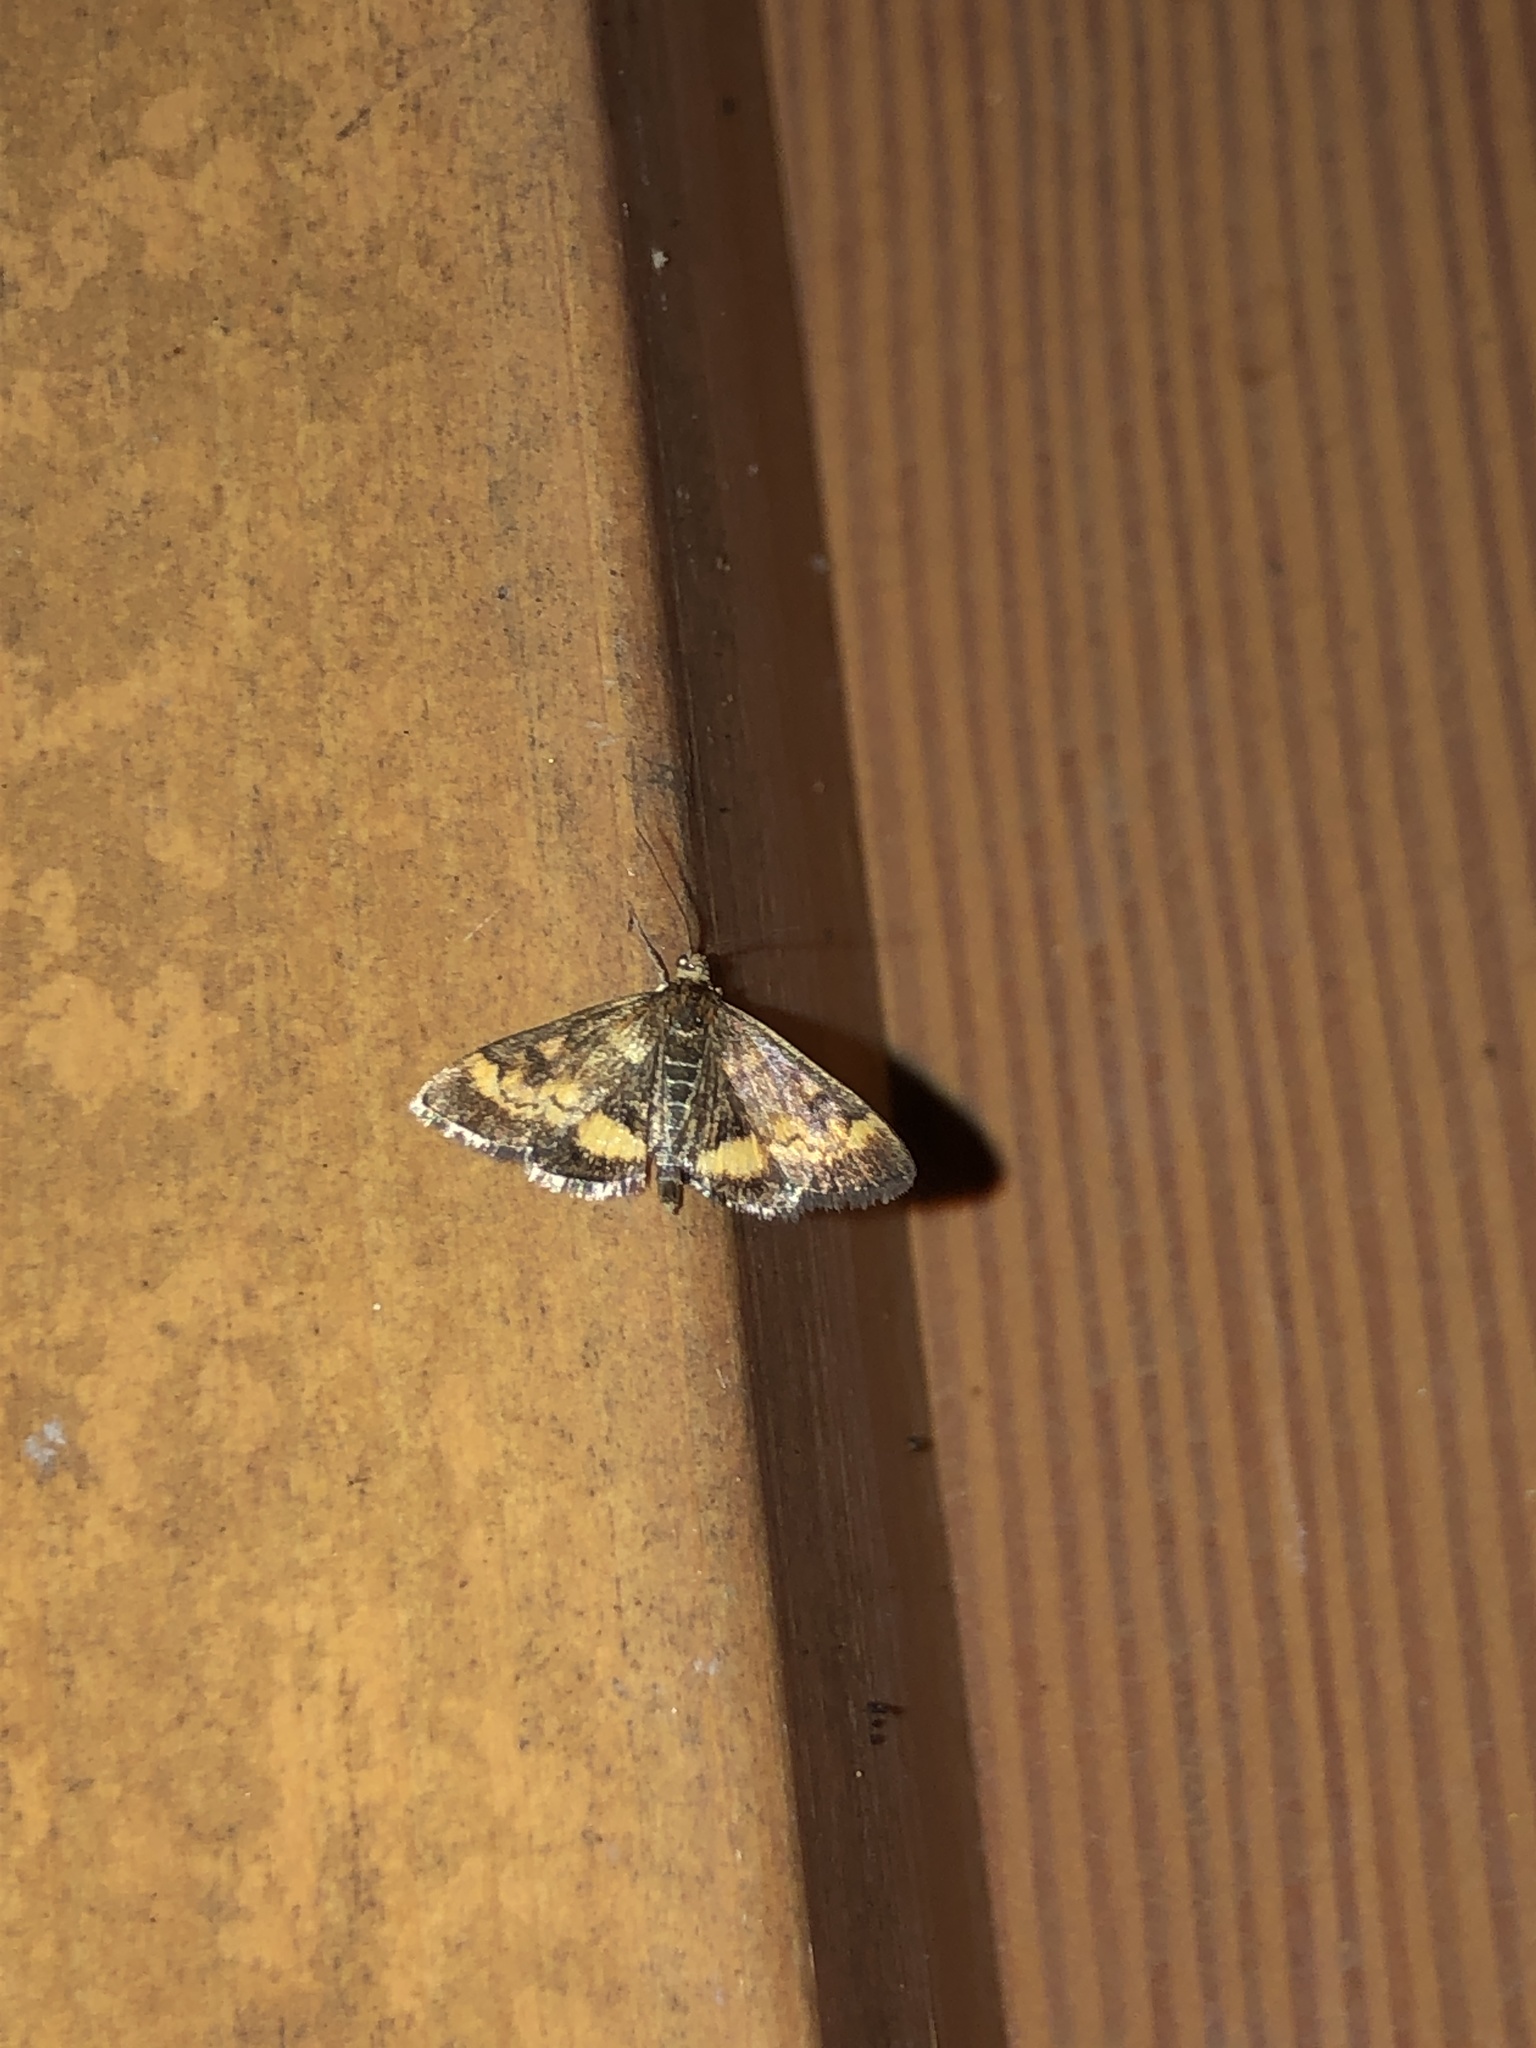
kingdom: Animalia
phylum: Arthropoda
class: Insecta
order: Lepidoptera
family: Crambidae
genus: Pyrausta
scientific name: Pyrausta californicalis
